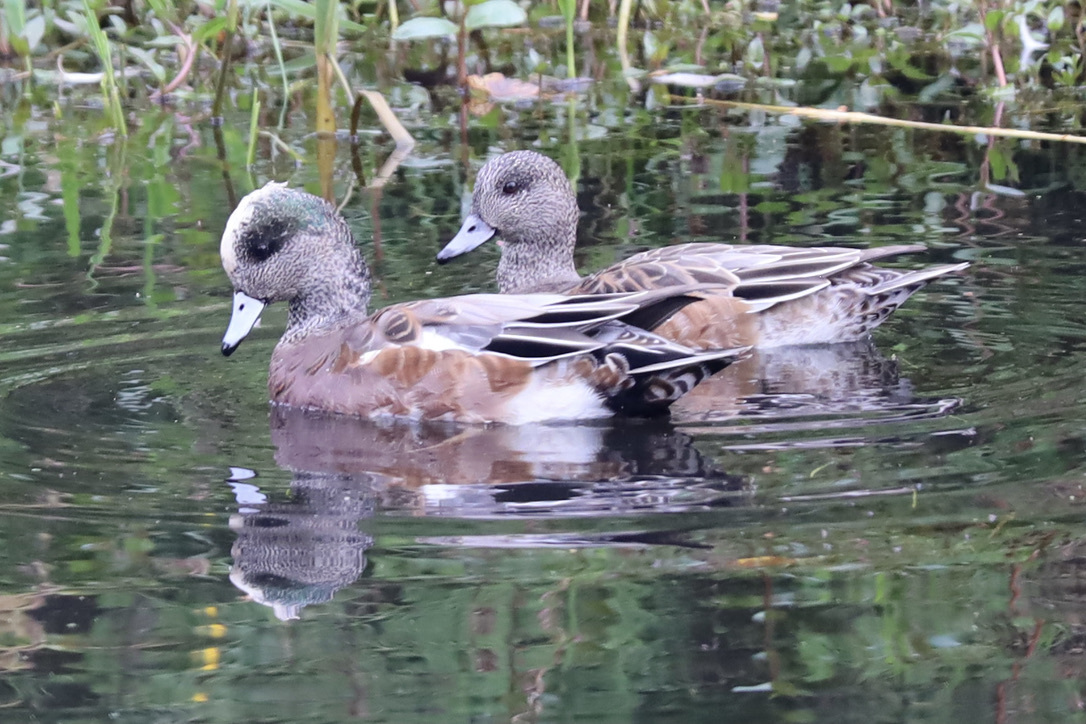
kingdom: Animalia
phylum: Chordata
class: Aves
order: Anseriformes
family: Anatidae
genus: Mareca
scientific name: Mareca americana
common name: American wigeon
